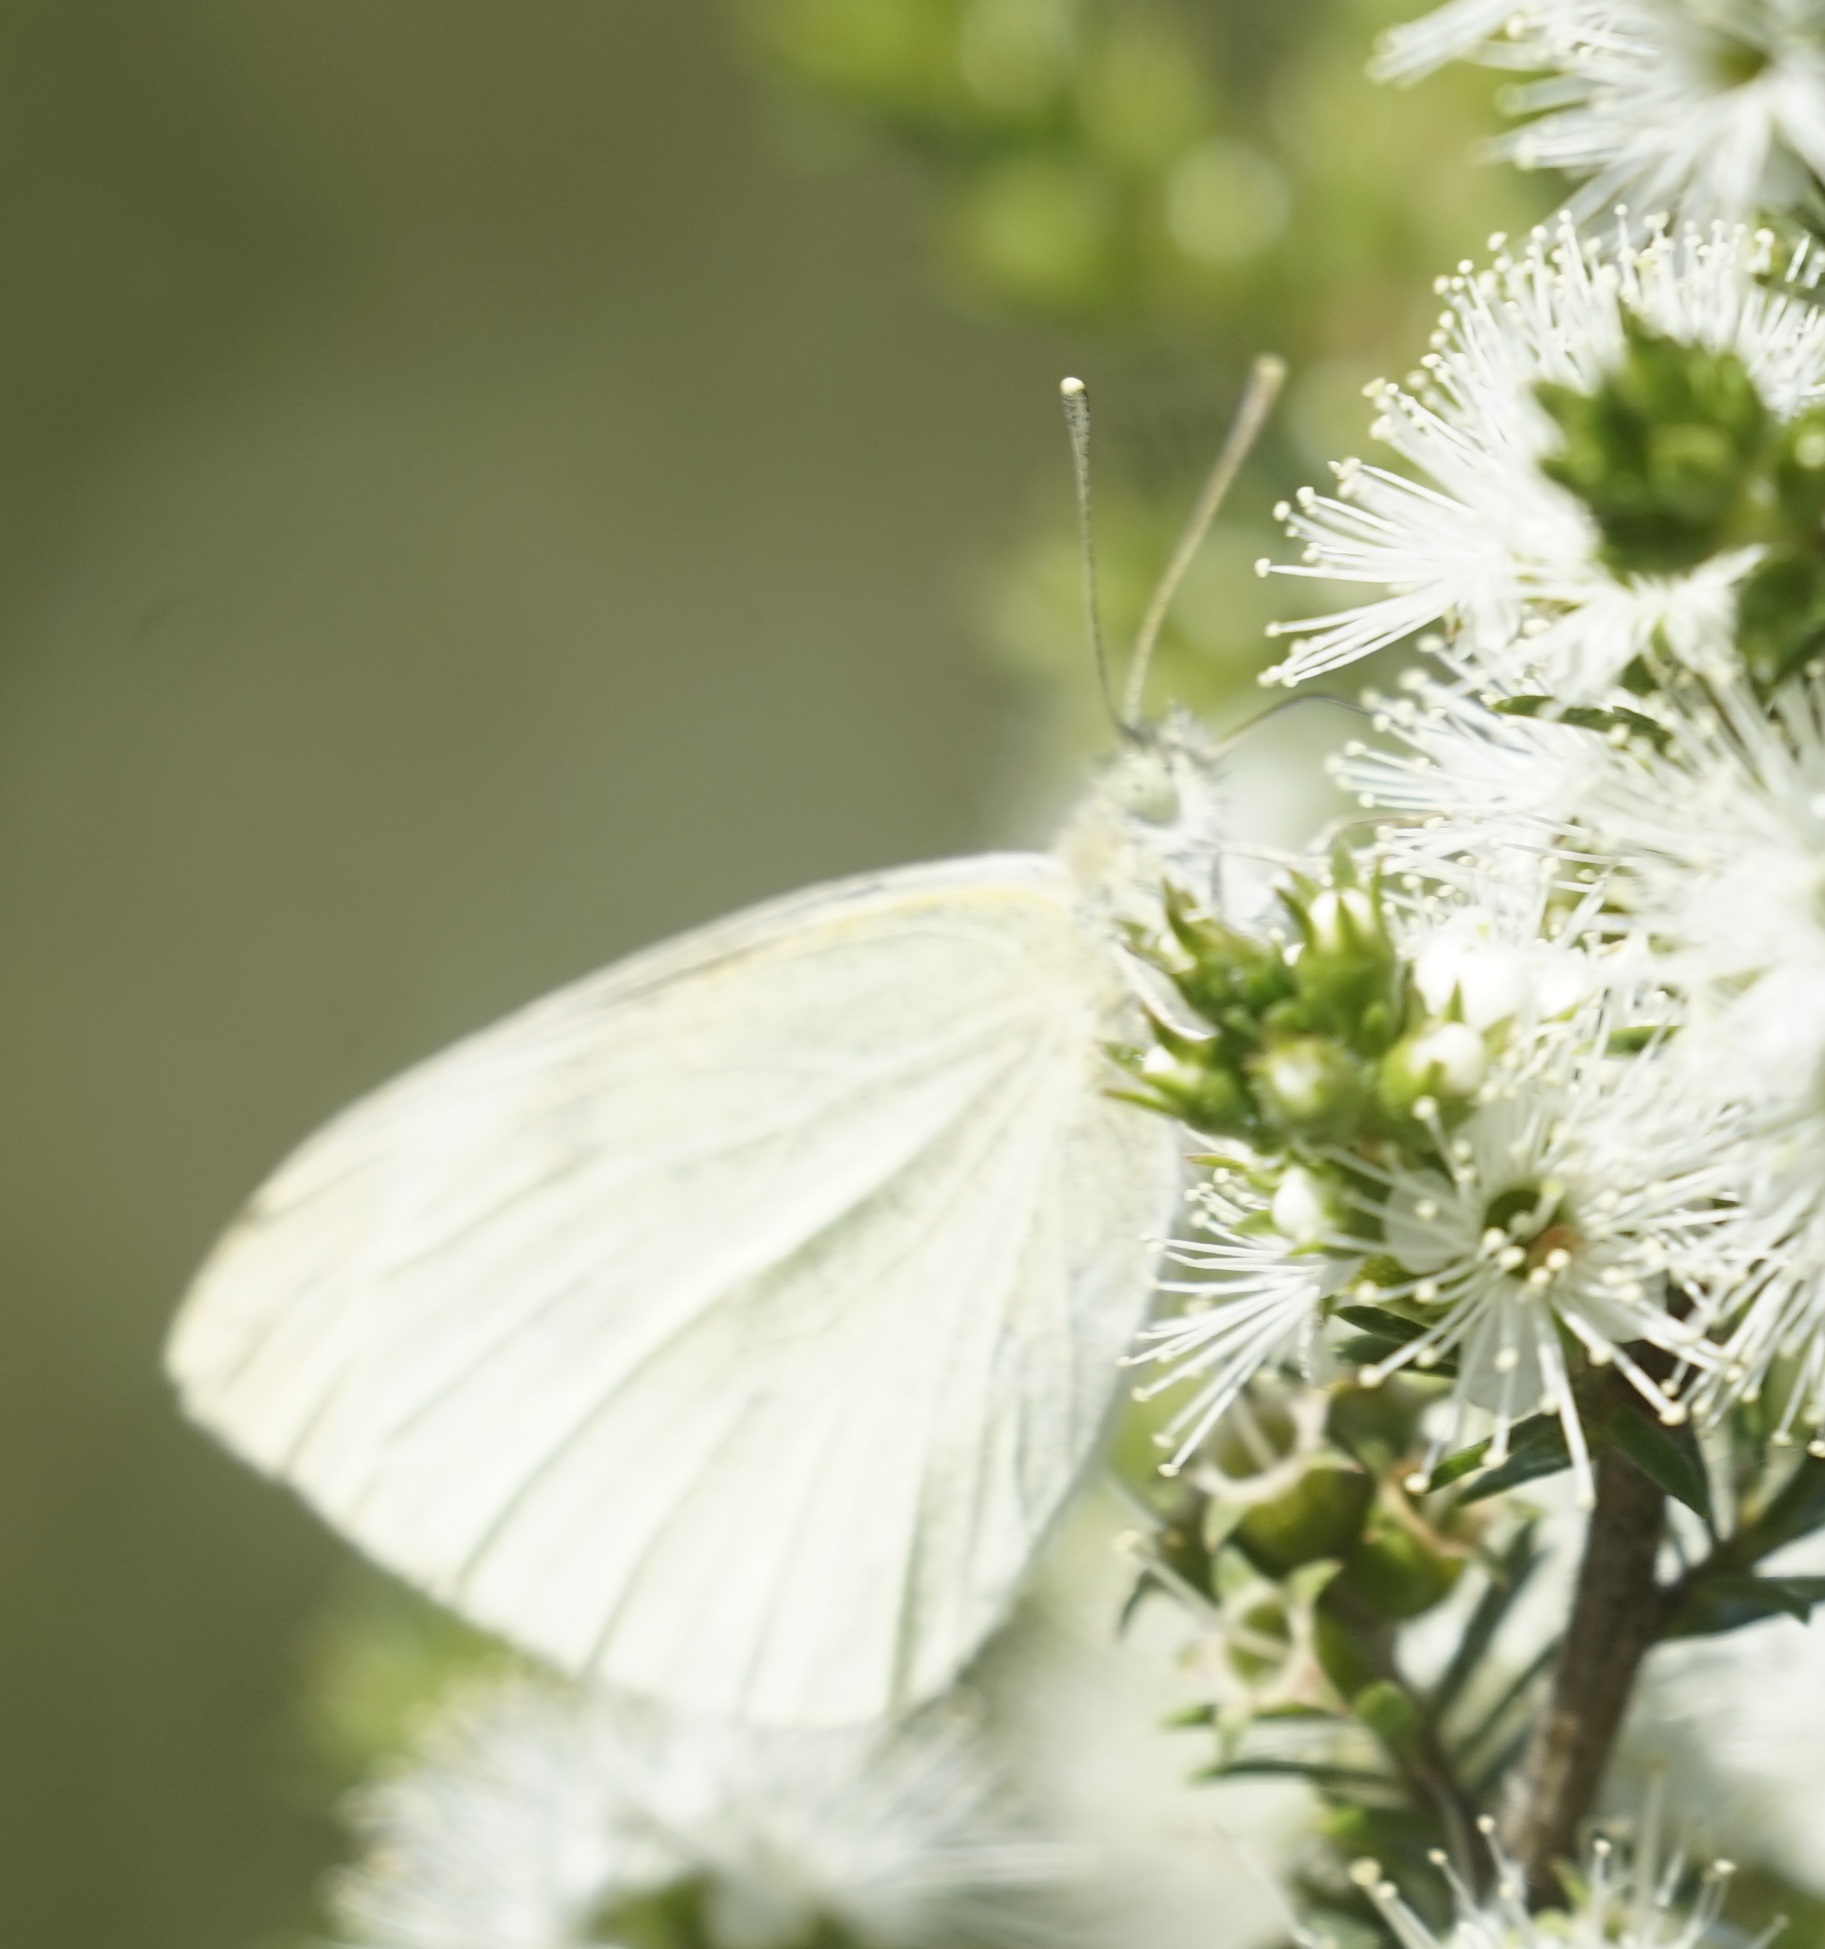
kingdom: Animalia
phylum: Arthropoda
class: Insecta
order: Lepidoptera
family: Pieridae
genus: Pieris
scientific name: Pieris rapae
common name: Small white
